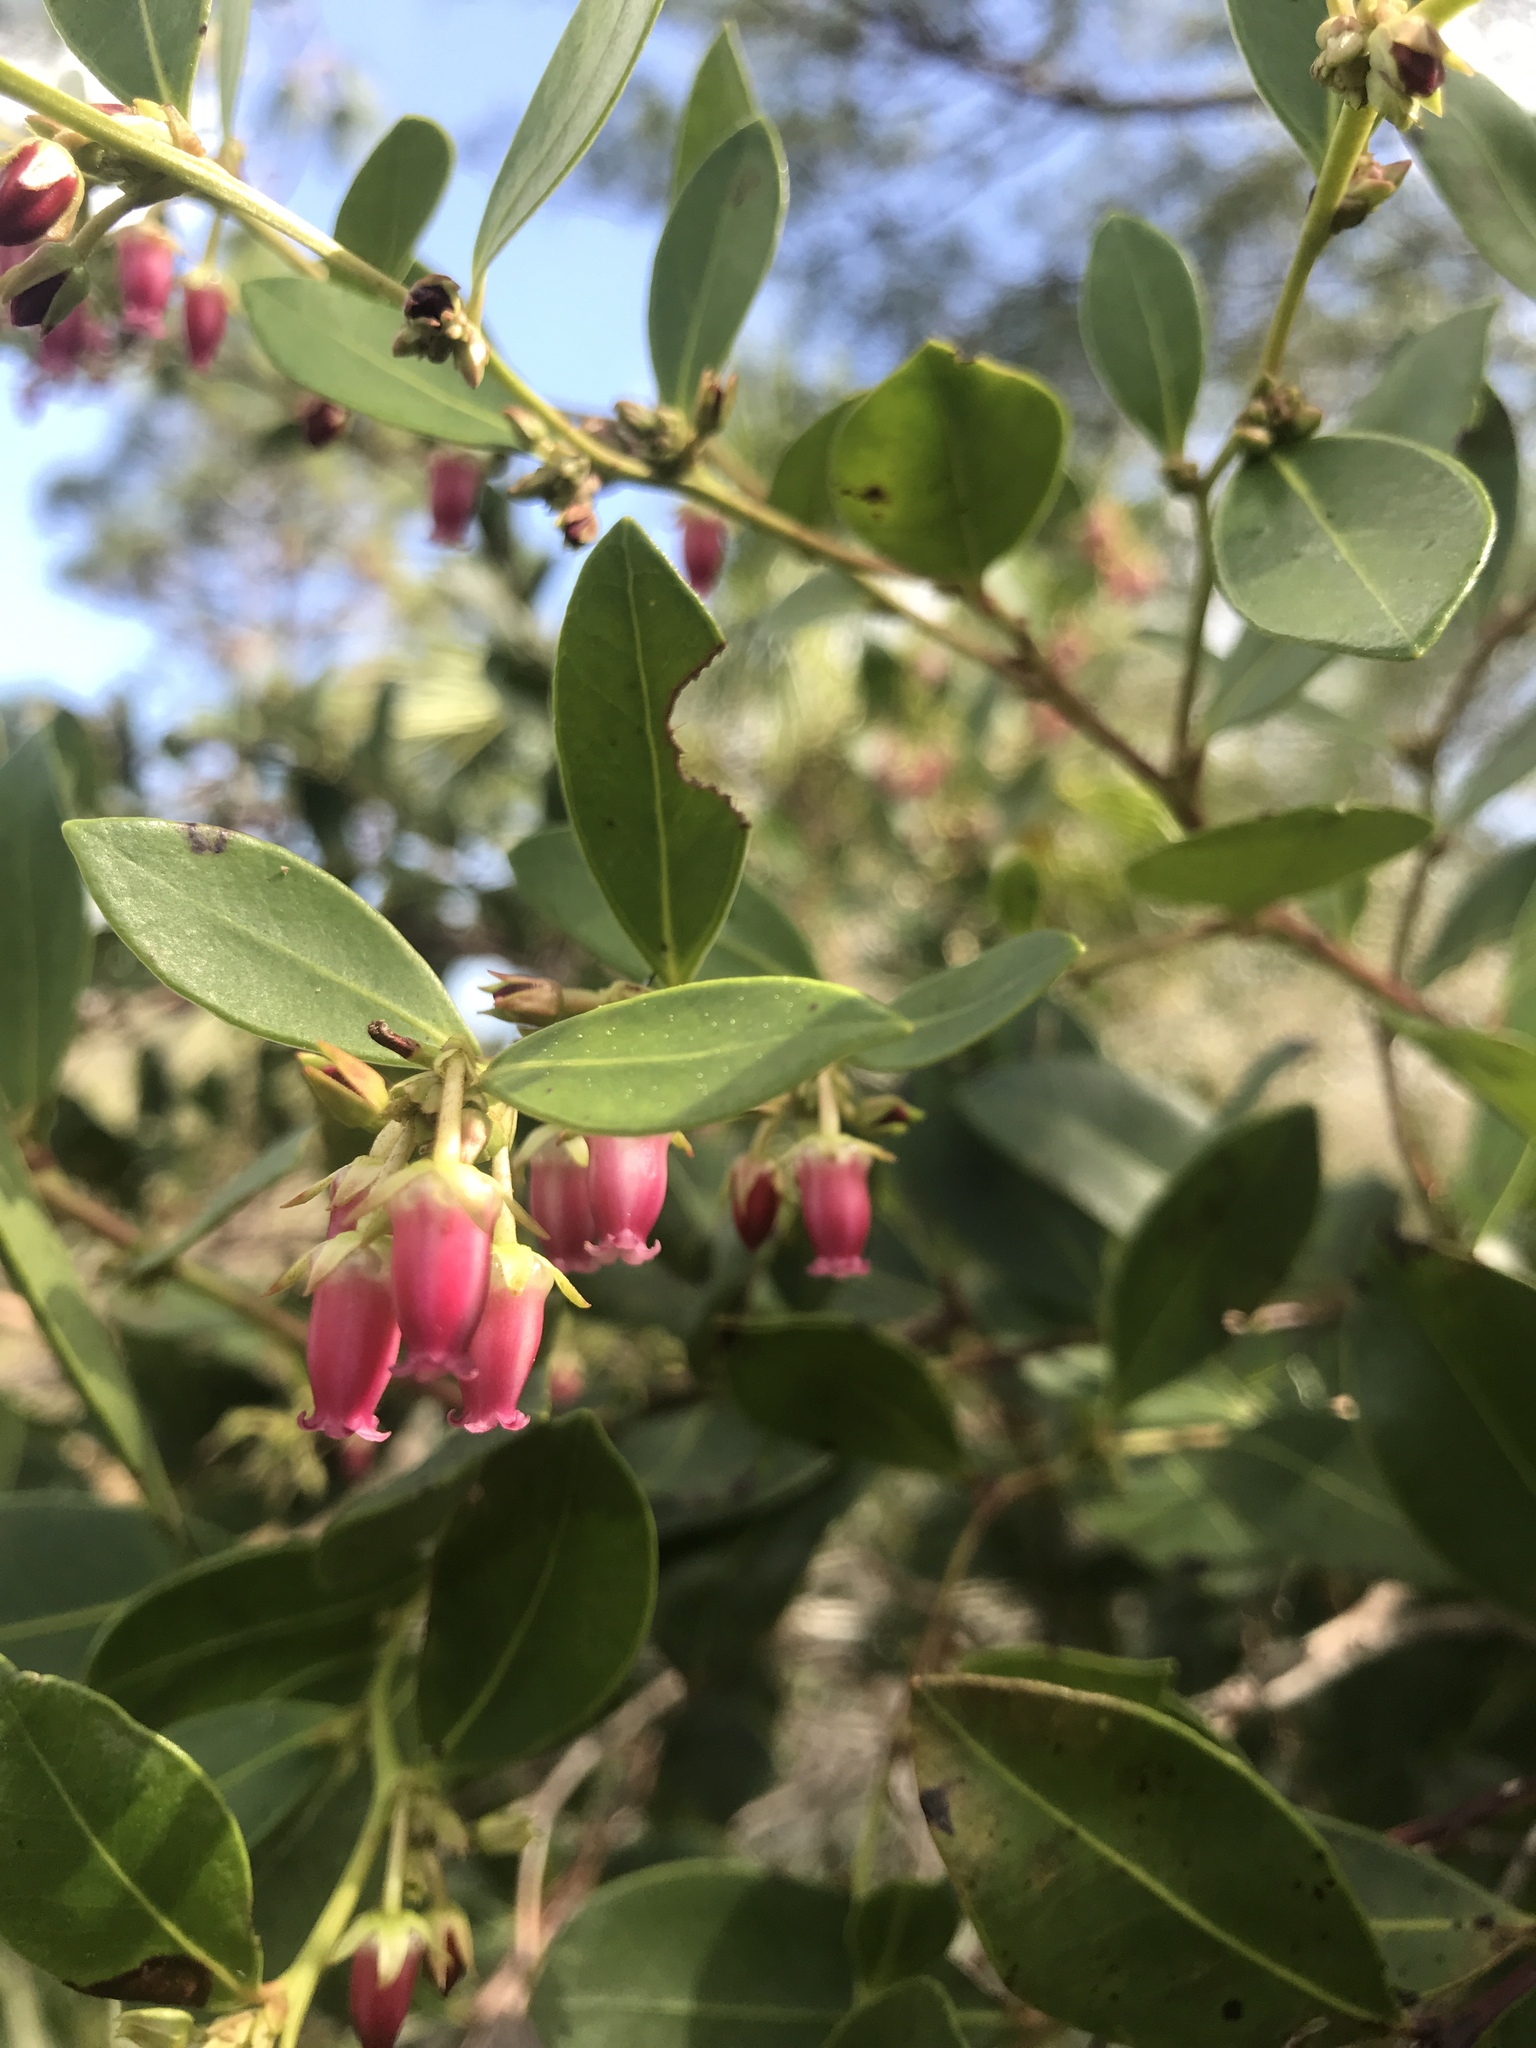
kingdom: Plantae
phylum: Tracheophyta
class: Magnoliopsida
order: Ericales
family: Ericaceae
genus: Lyonia
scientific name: Lyonia lucida
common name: Fetterbush
